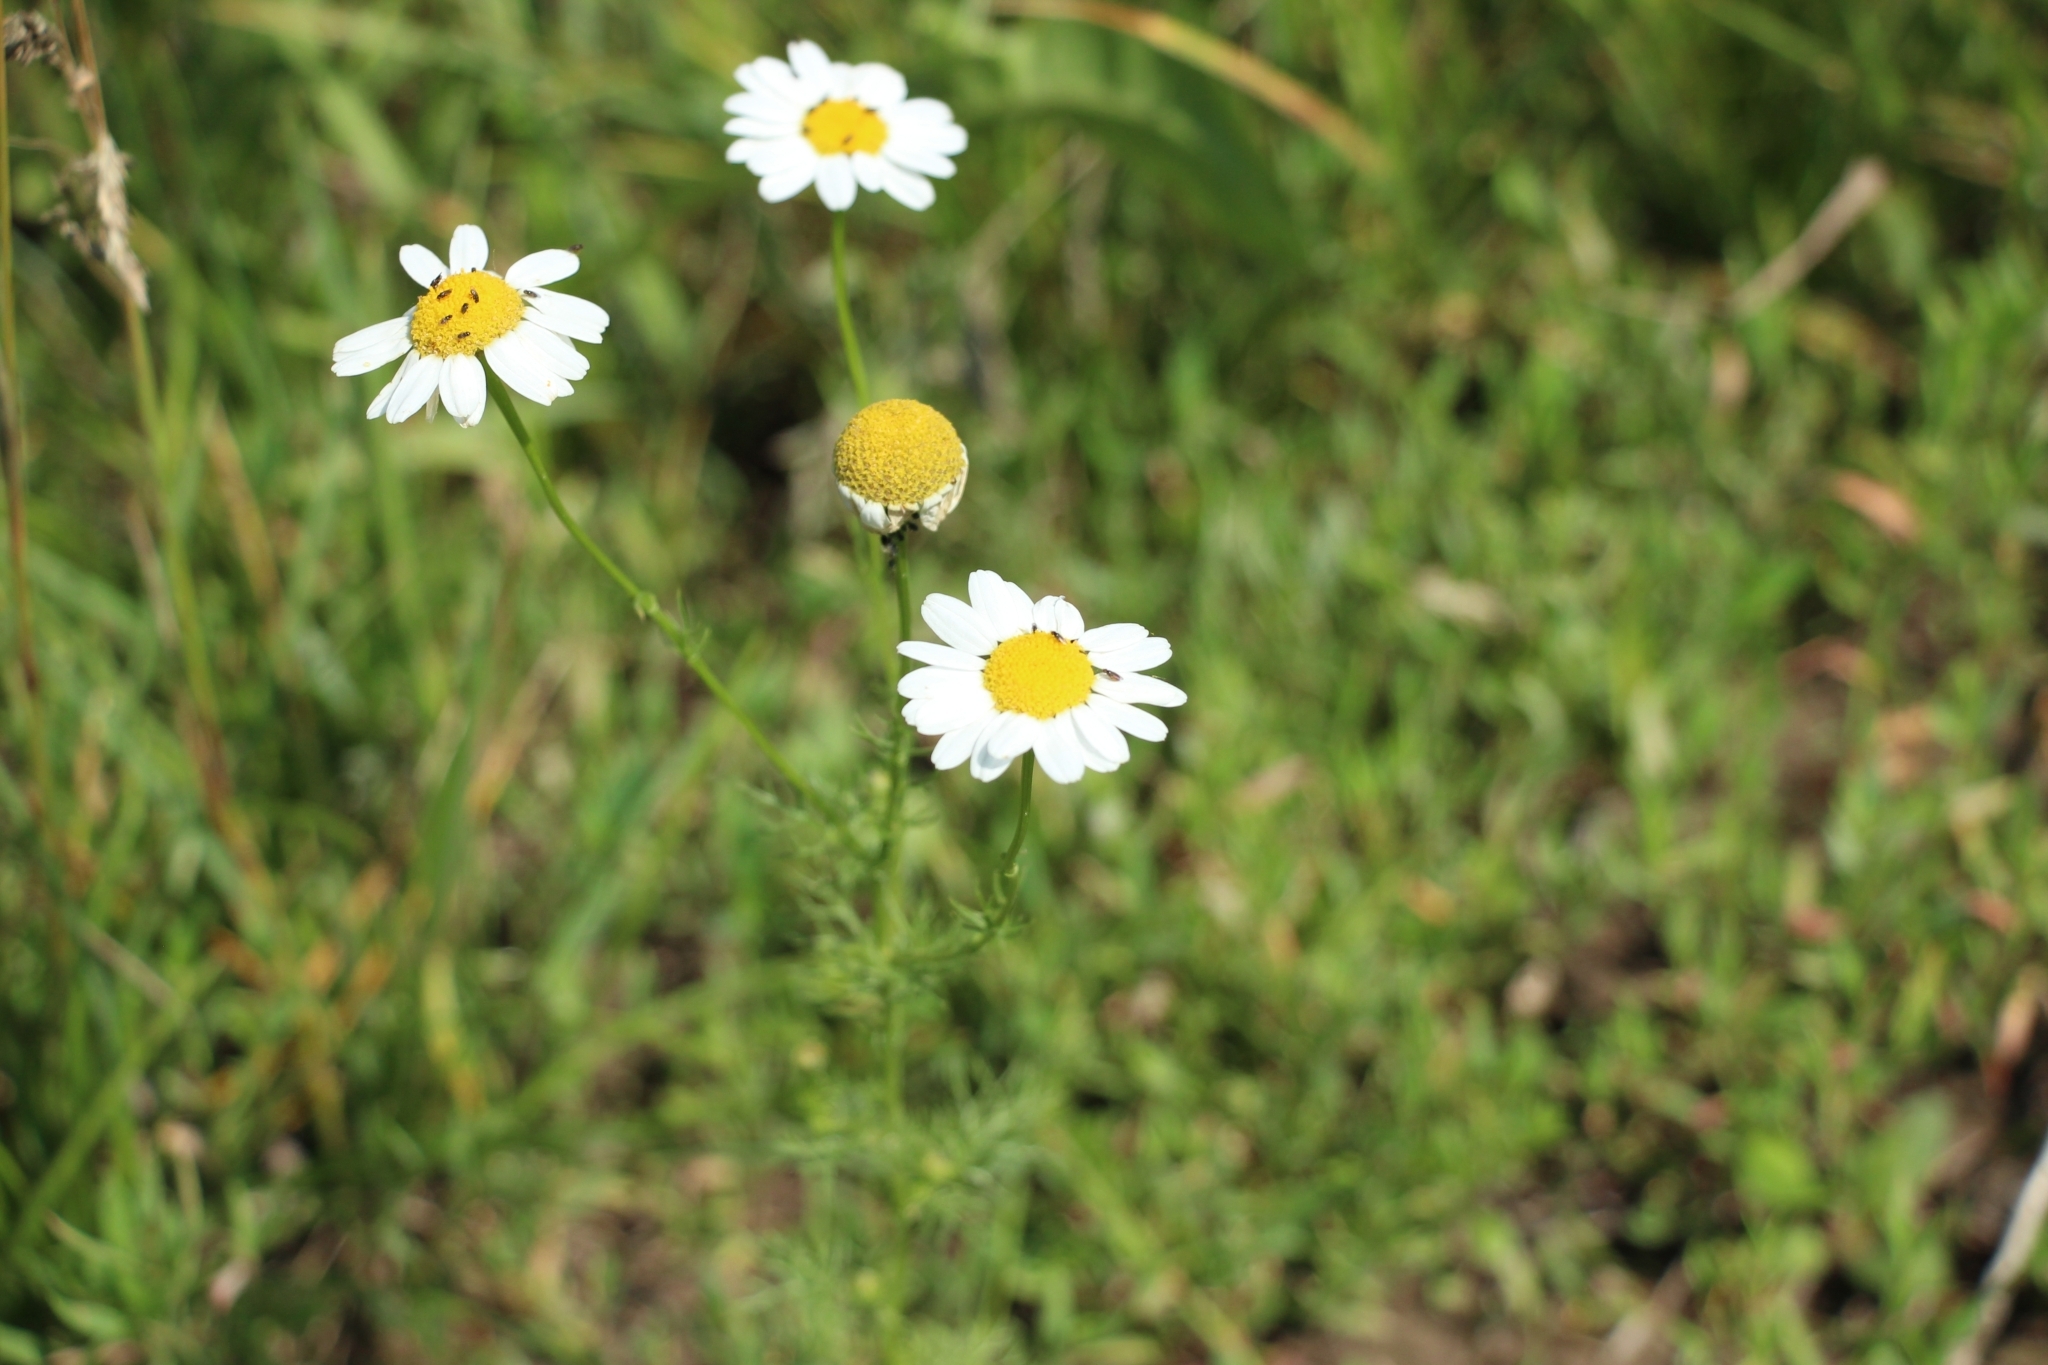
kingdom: Plantae
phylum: Tracheophyta
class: Magnoliopsida
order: Asterales
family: Asteraceae
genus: Matricaria
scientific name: Matricaria chamomilla
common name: Scented mayweed
